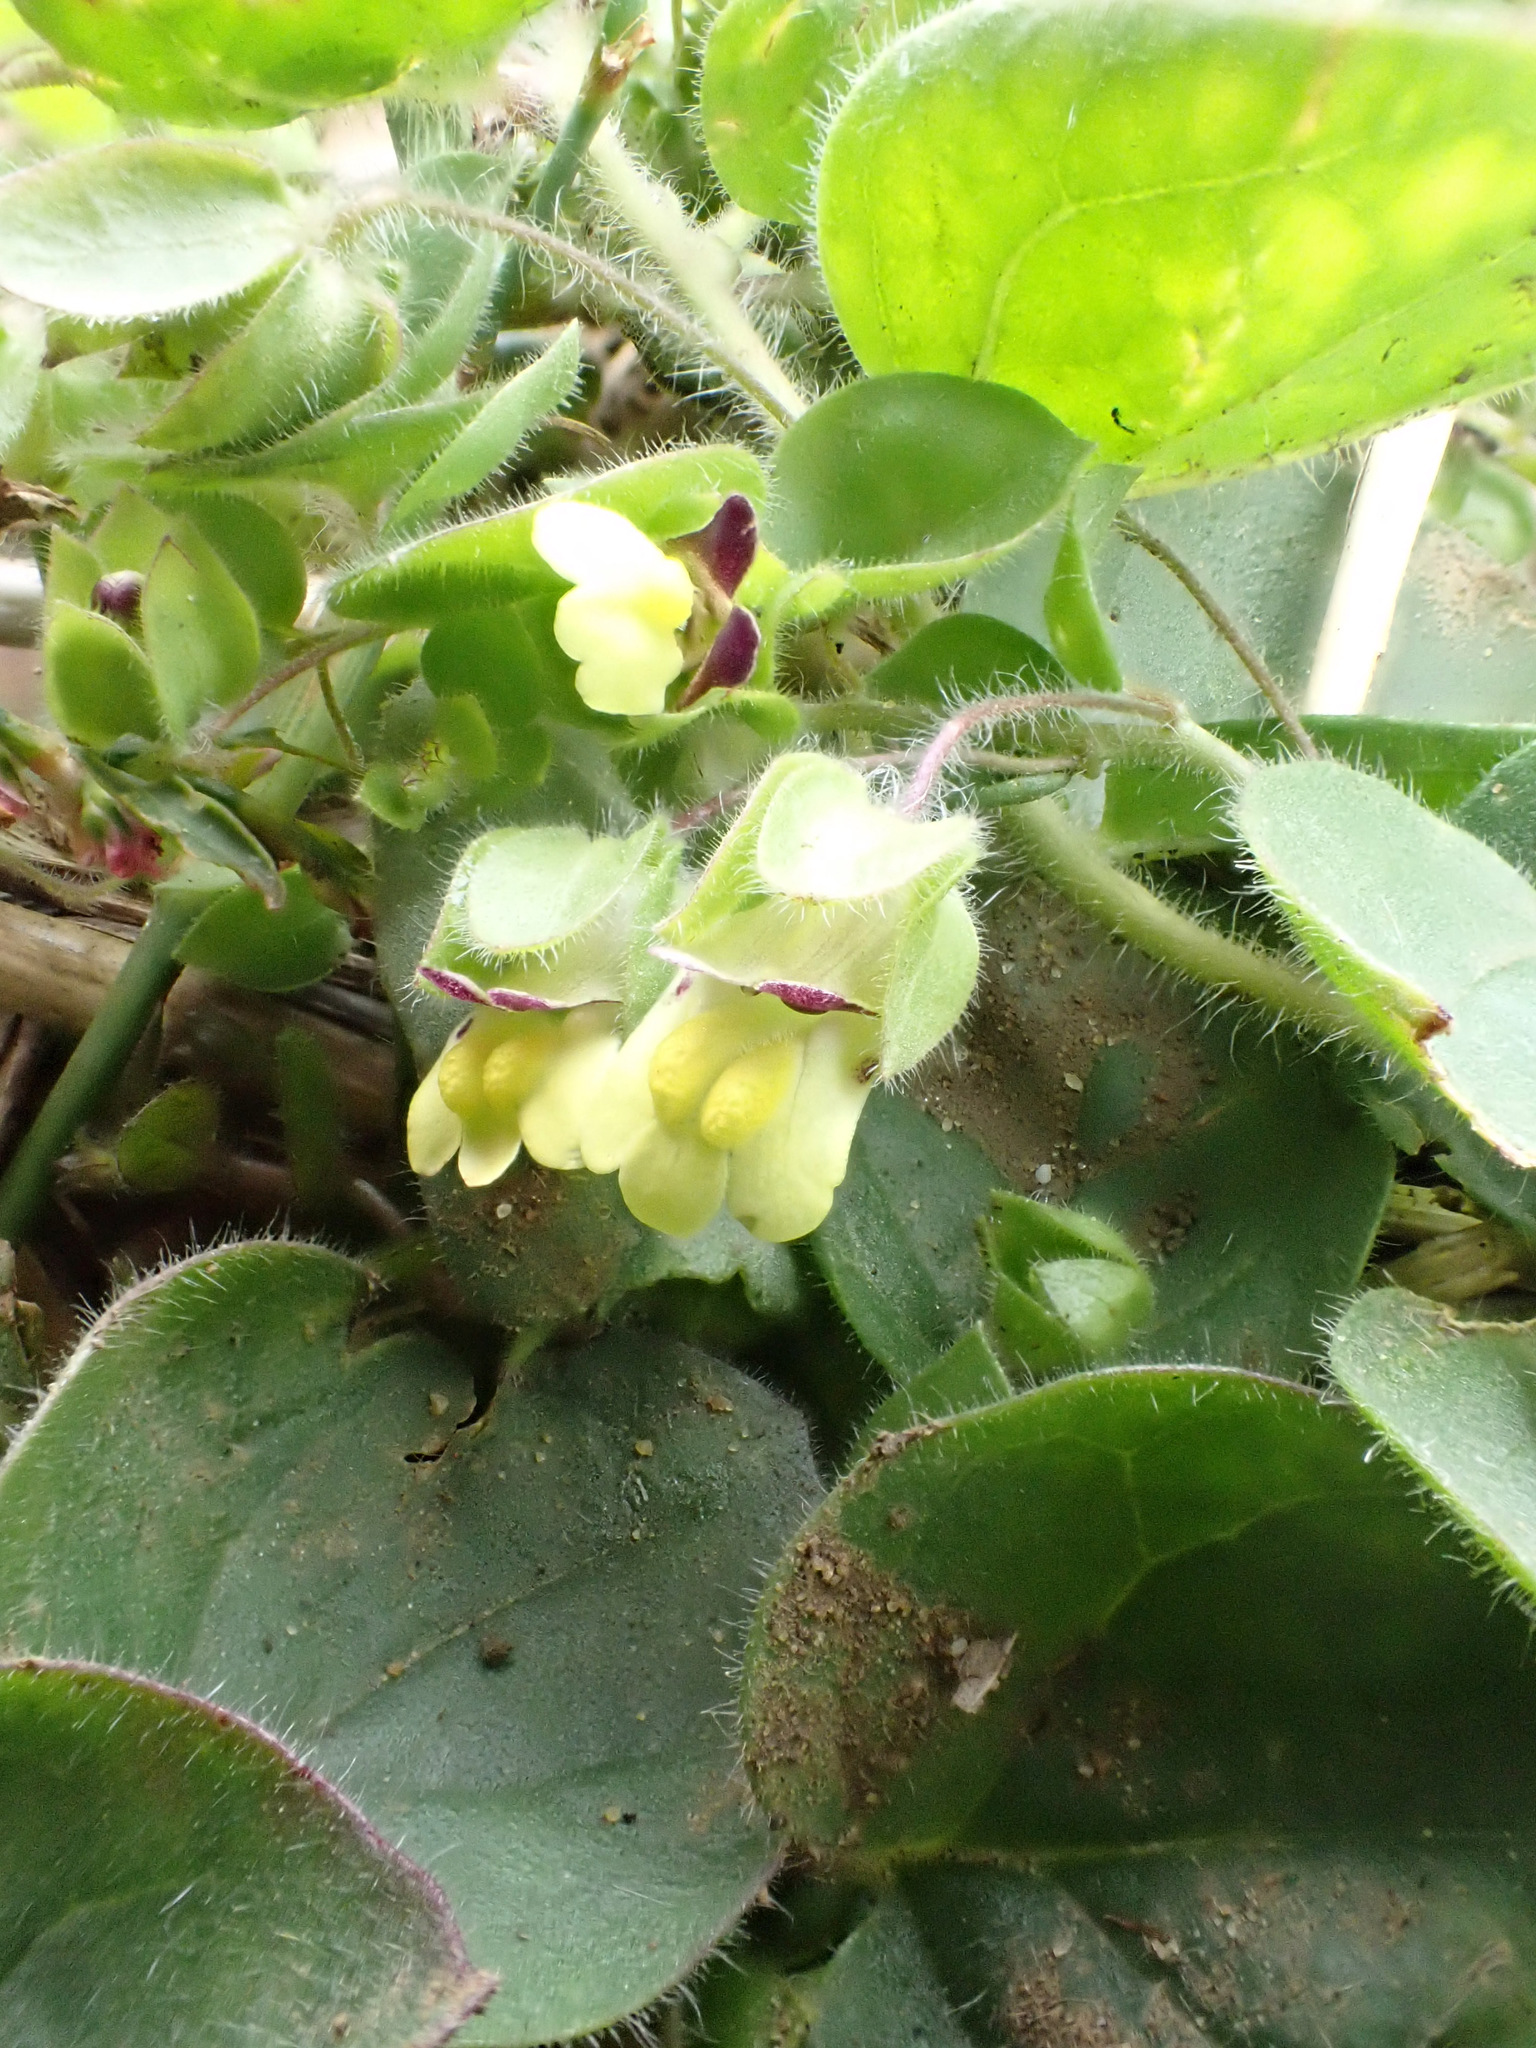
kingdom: Plantae
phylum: Tracheophyta
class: Magnoliopsida
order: Lamiales
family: Plantaginaceae
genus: Kickxia
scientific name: Kickxia spuria
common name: Round-leaved fluellen
